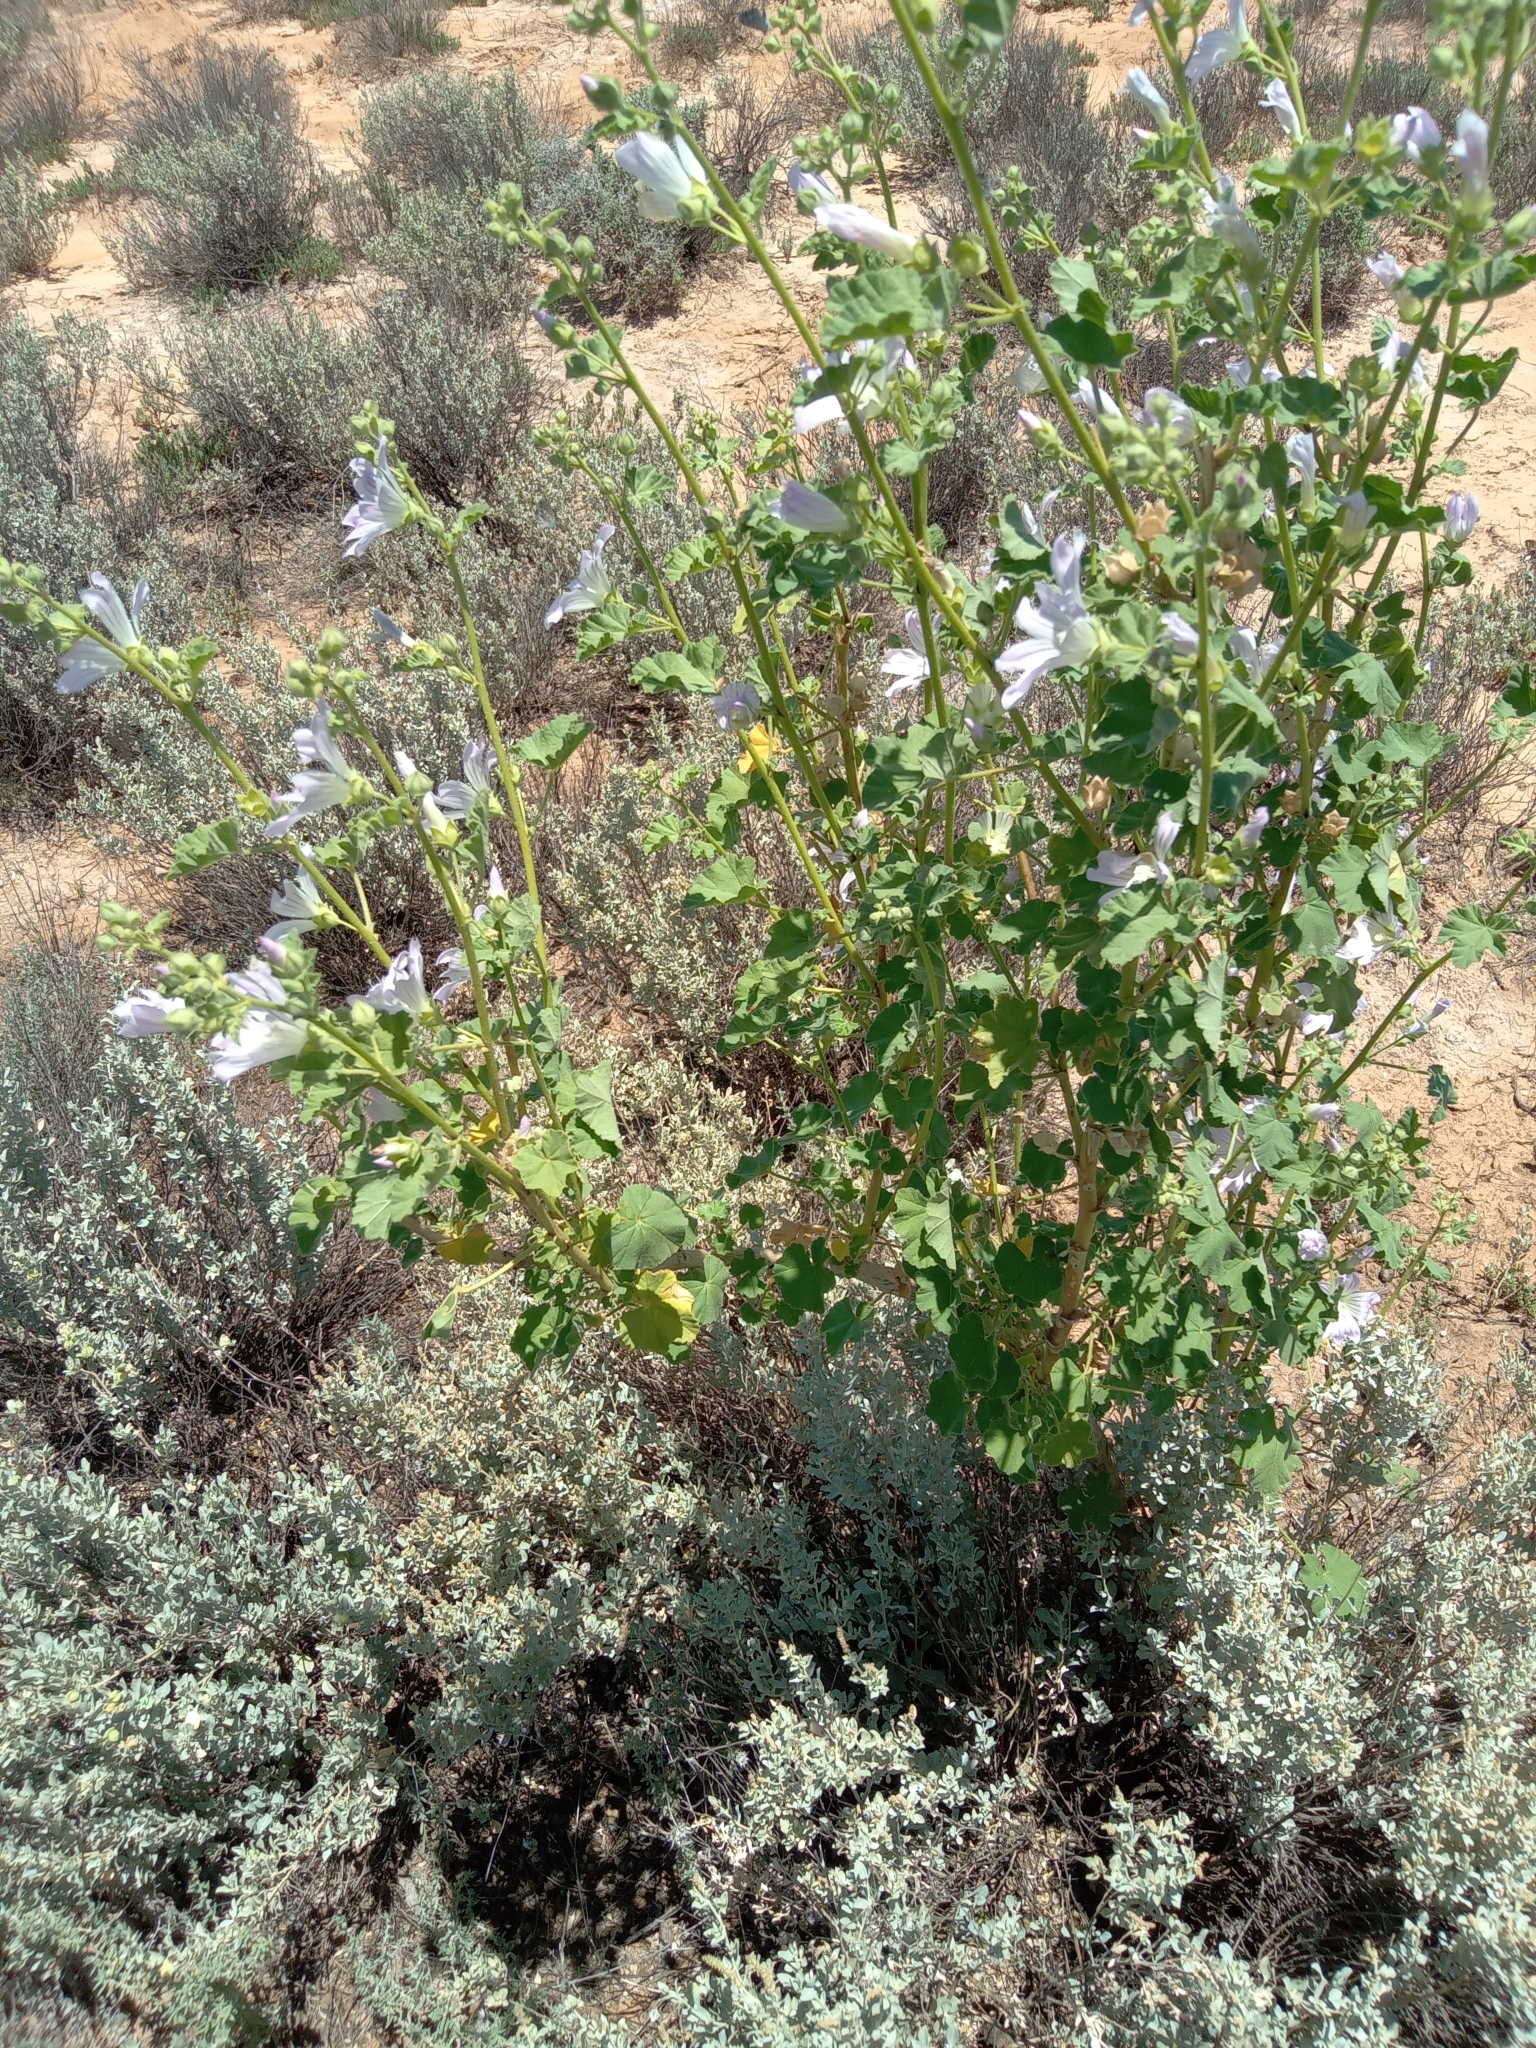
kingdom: Plantae
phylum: Tracheophyta
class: Magnoliopsida
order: Malvales
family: Malvaceae
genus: Malva
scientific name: Malva weinmanniana
